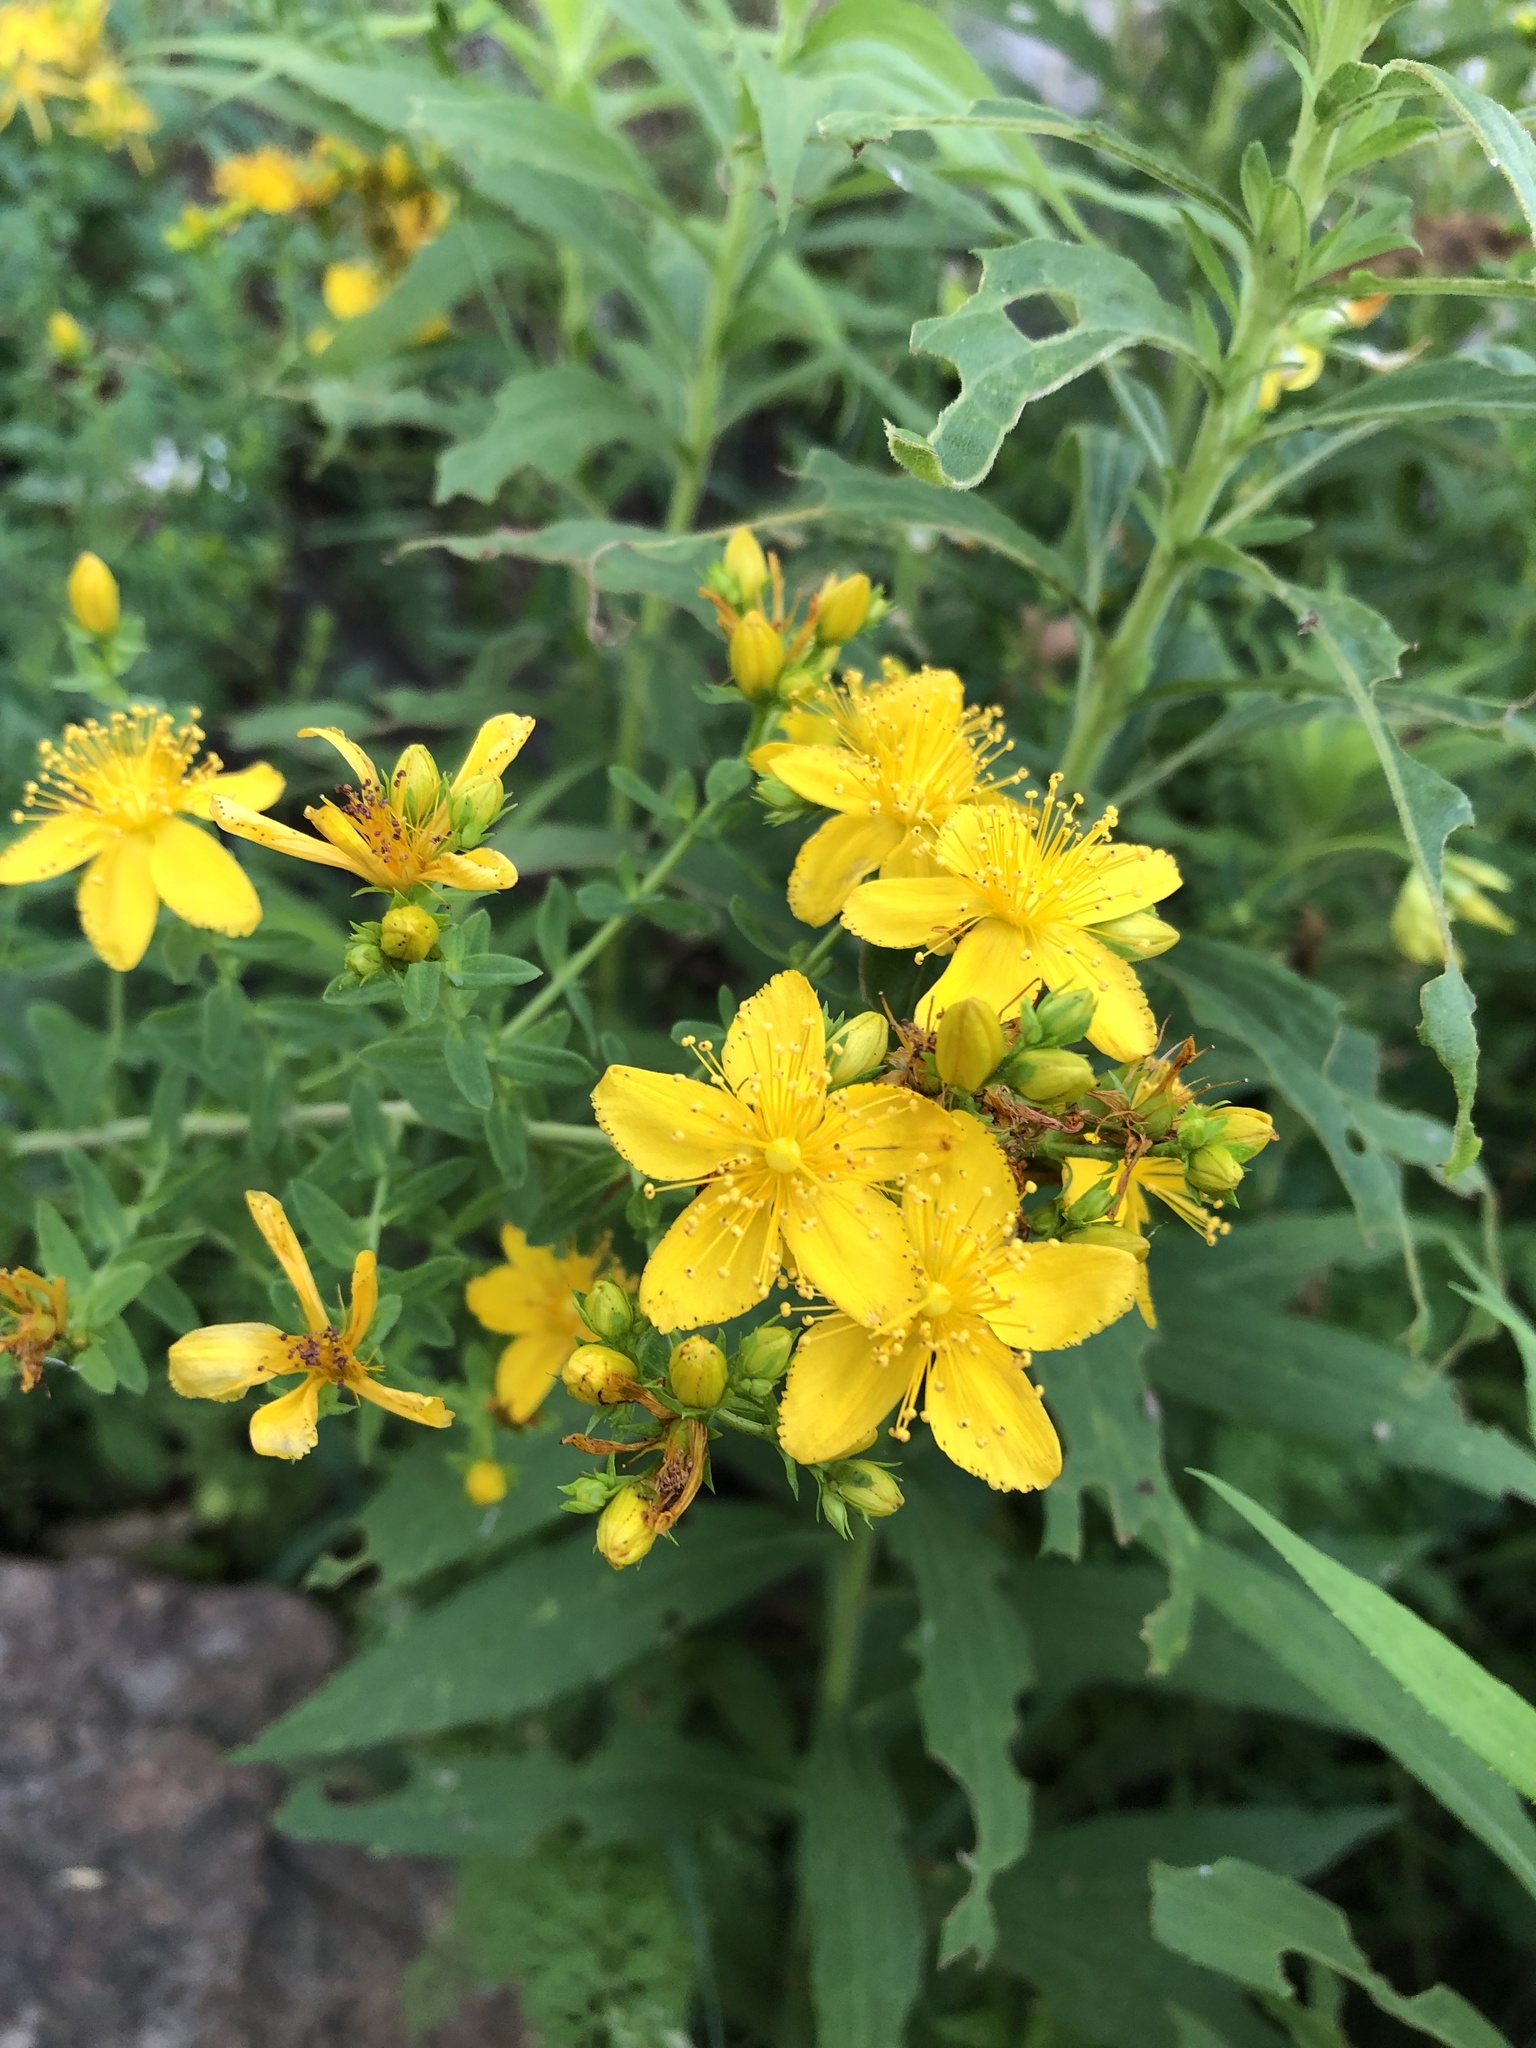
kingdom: Plantae
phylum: Tracheophyta
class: Magnoliopsida
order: Malpighiales
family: Hypericaceae
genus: Hypericum
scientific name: Hypericum perforatum
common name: Common st. johnswort
